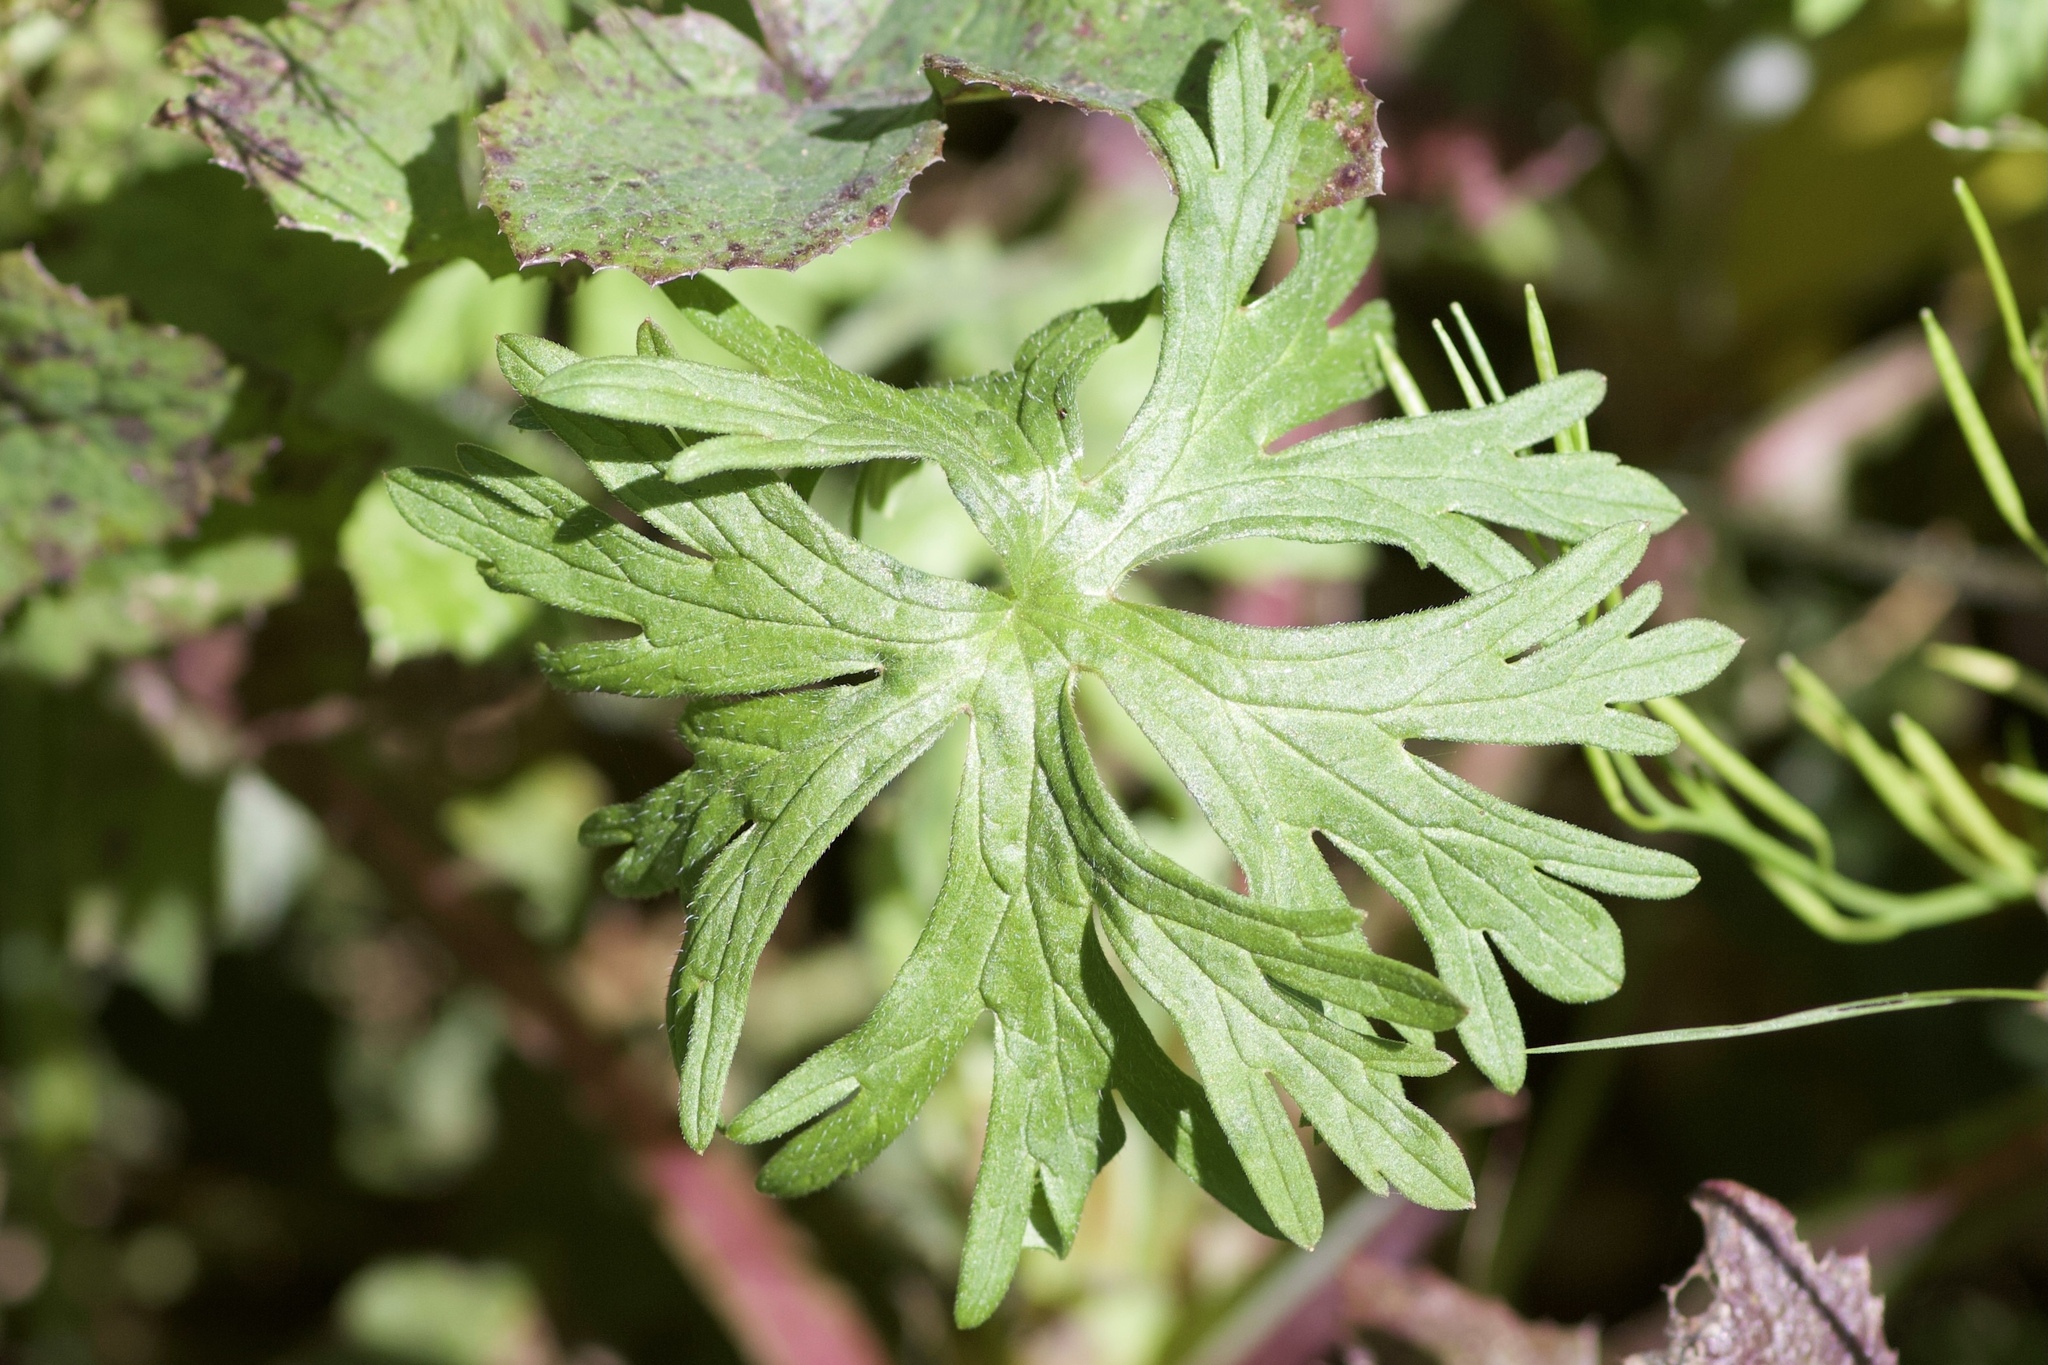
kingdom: Plantae
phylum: Tracheophyta
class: Magnoliopsida
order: Geraniales
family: Geraniaceae
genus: Geranium
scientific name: Geranium
